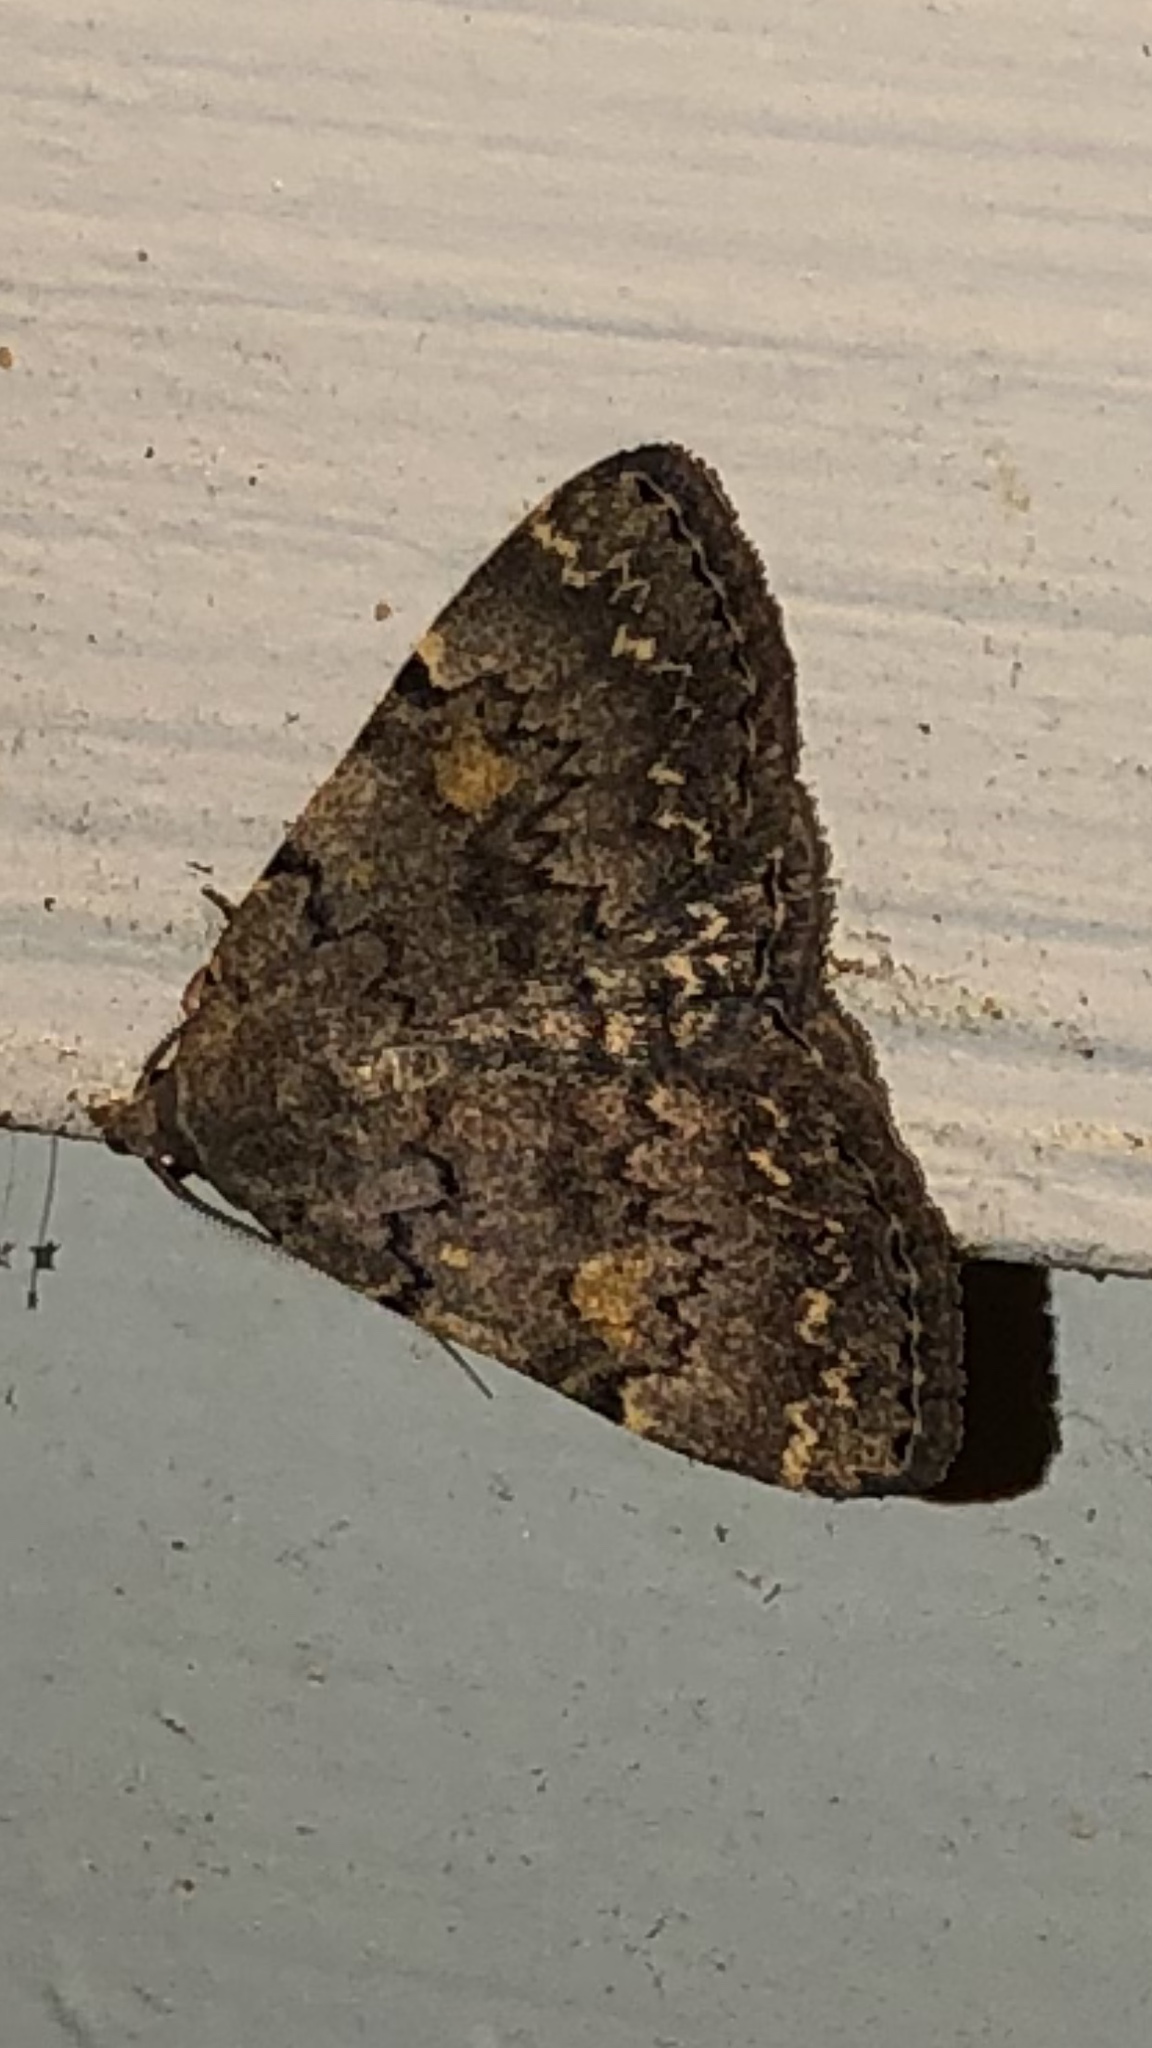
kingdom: Animalia
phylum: Arthropoda
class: Insecta
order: Lepidoptera
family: Erebidae
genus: Idia
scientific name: Idia aemula
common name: Common idia moth
